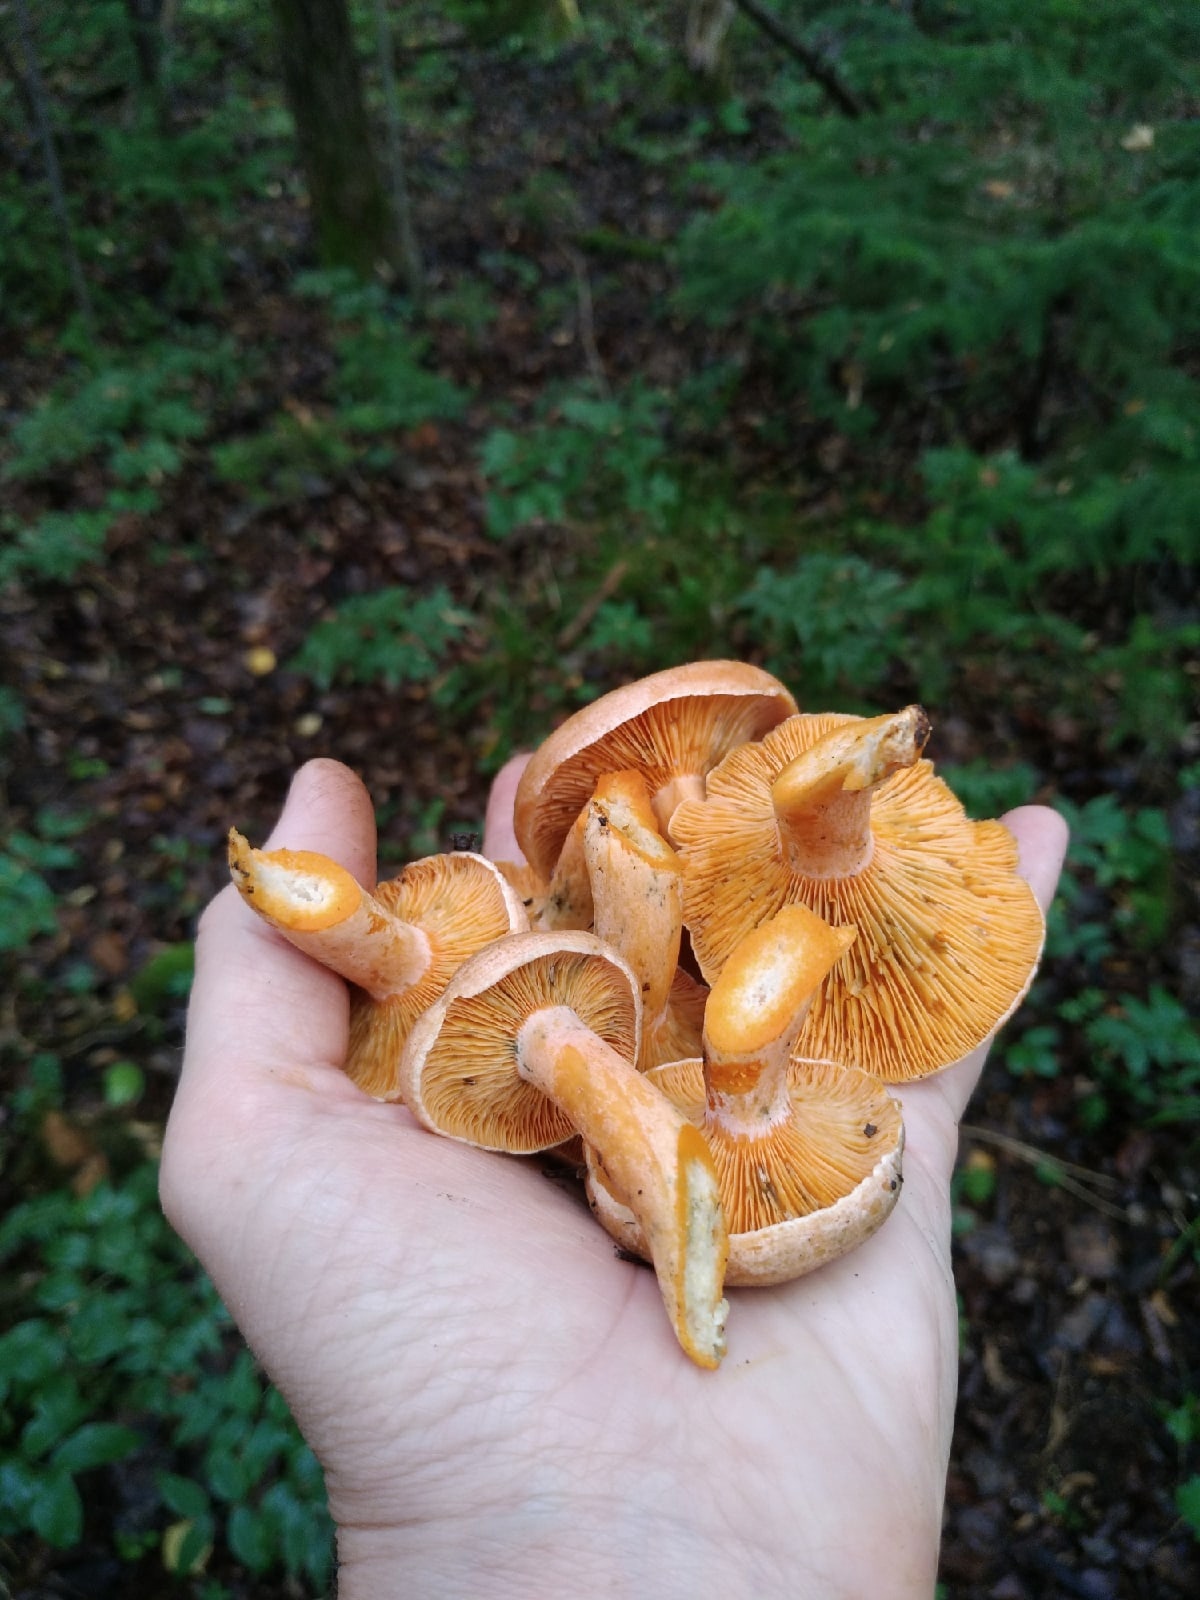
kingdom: Fungi
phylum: Basidiomycota
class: Agaricomycetes
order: Russulales
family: Russulaceae
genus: Lactarius
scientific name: Lactarius deterrimus
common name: False saffron milkcap
